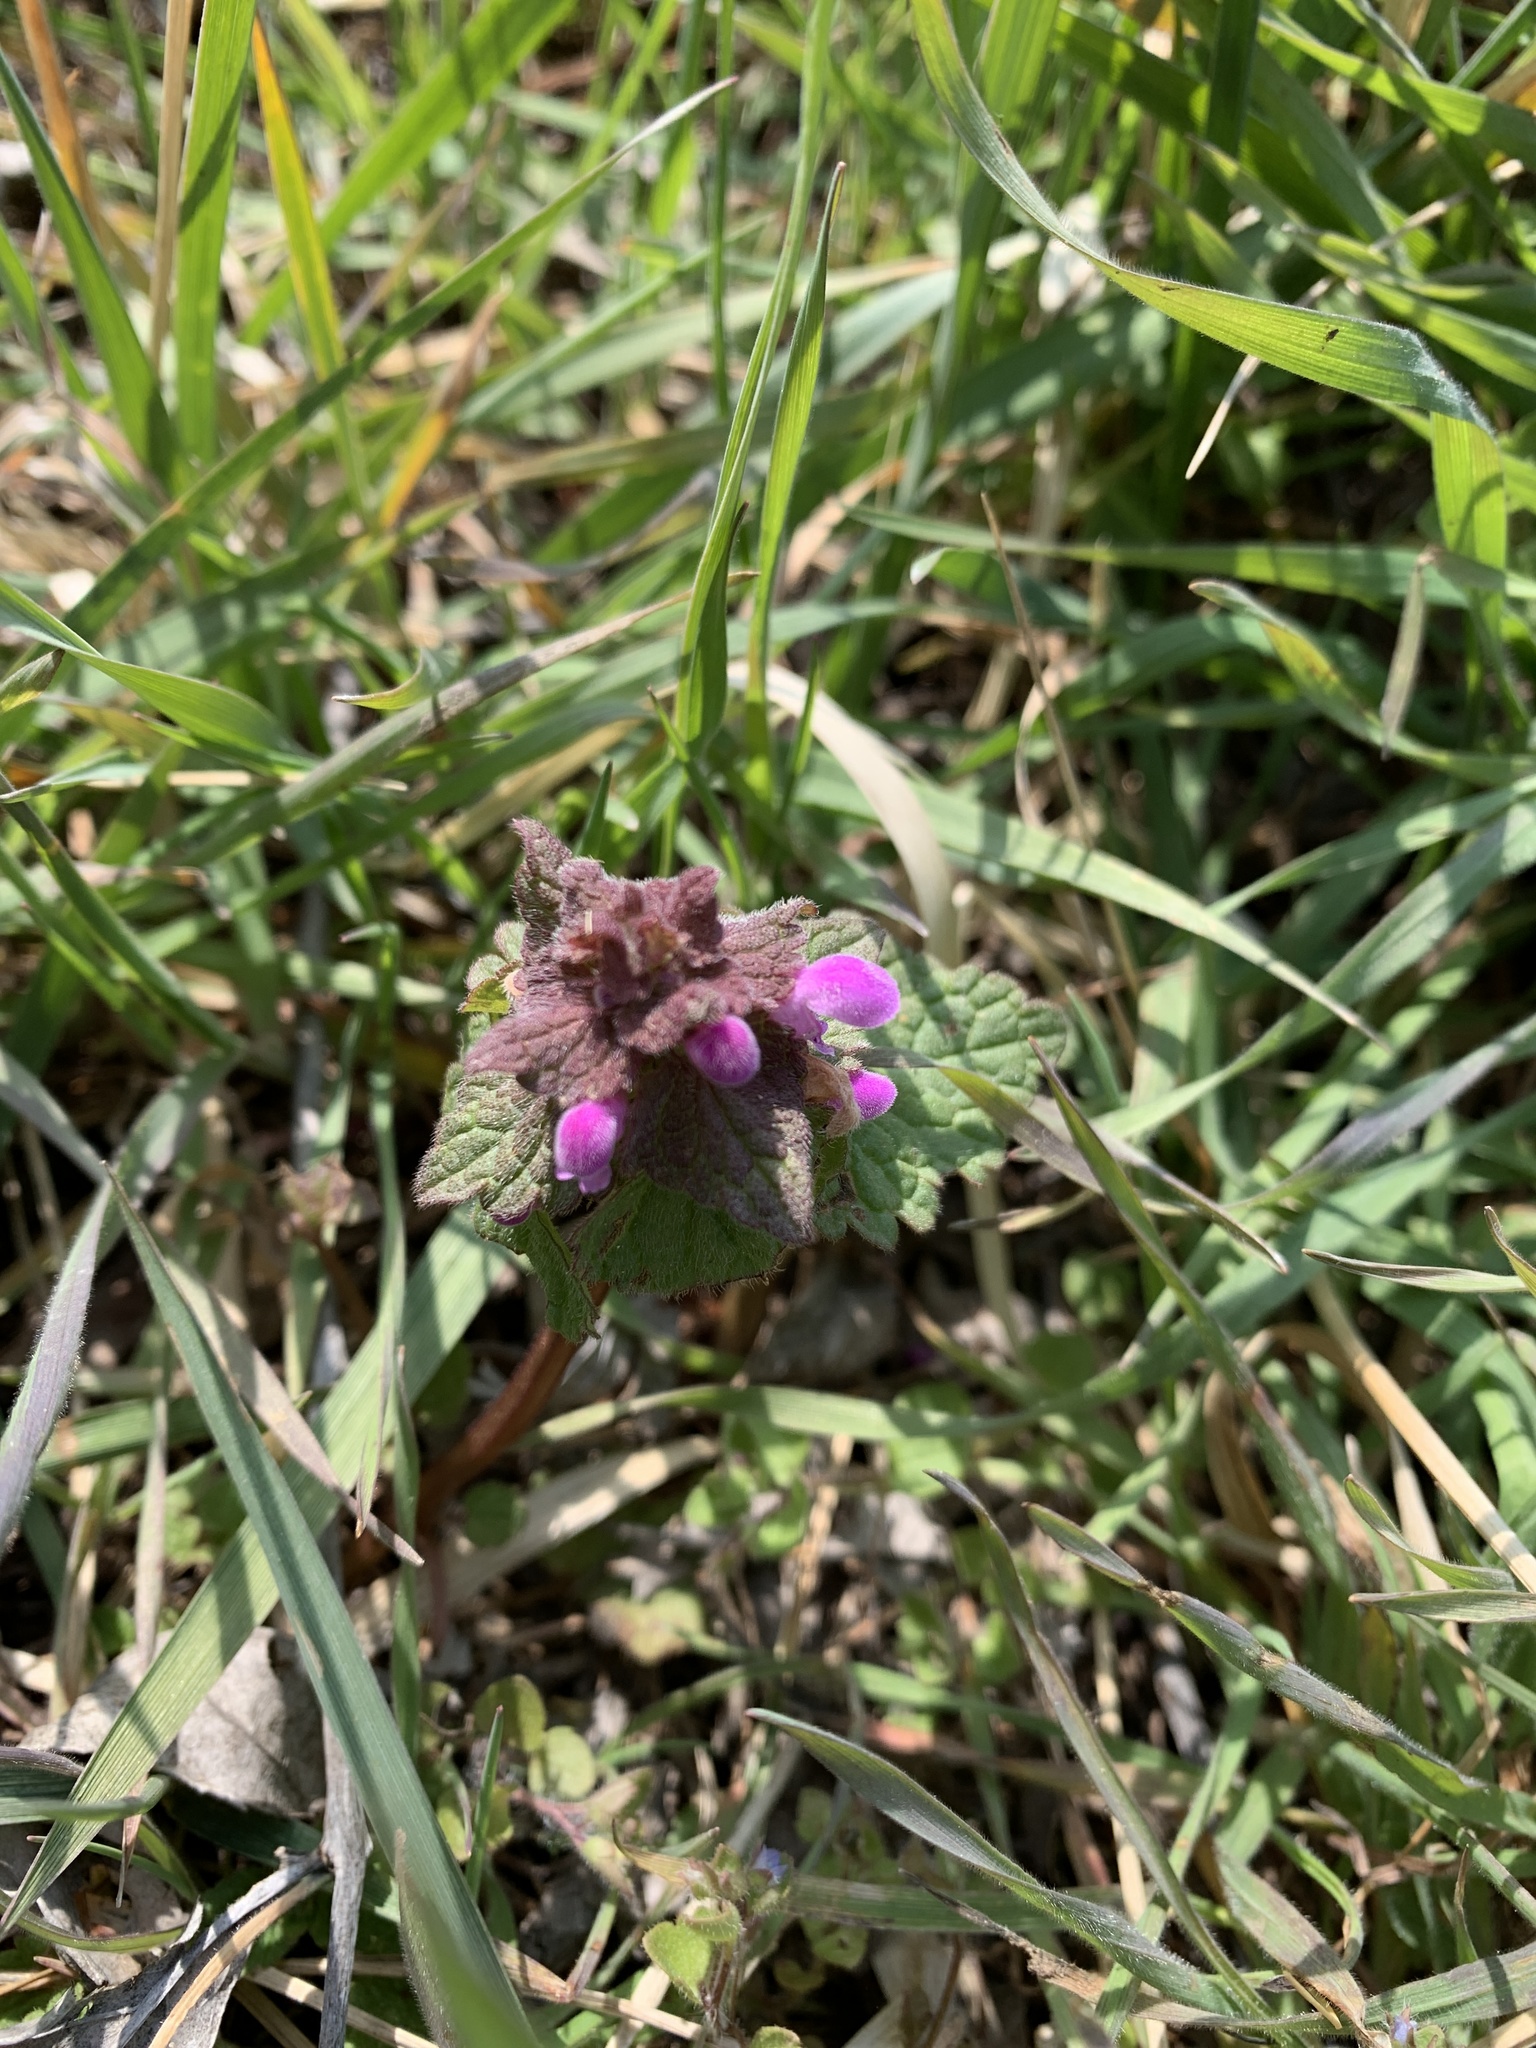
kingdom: Plantae
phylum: Tracheophyta
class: Magnoliopsida
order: Lamiales
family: Lamiaceae
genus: Lamium
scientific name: Lamium purpureum
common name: Red dead-nettle
